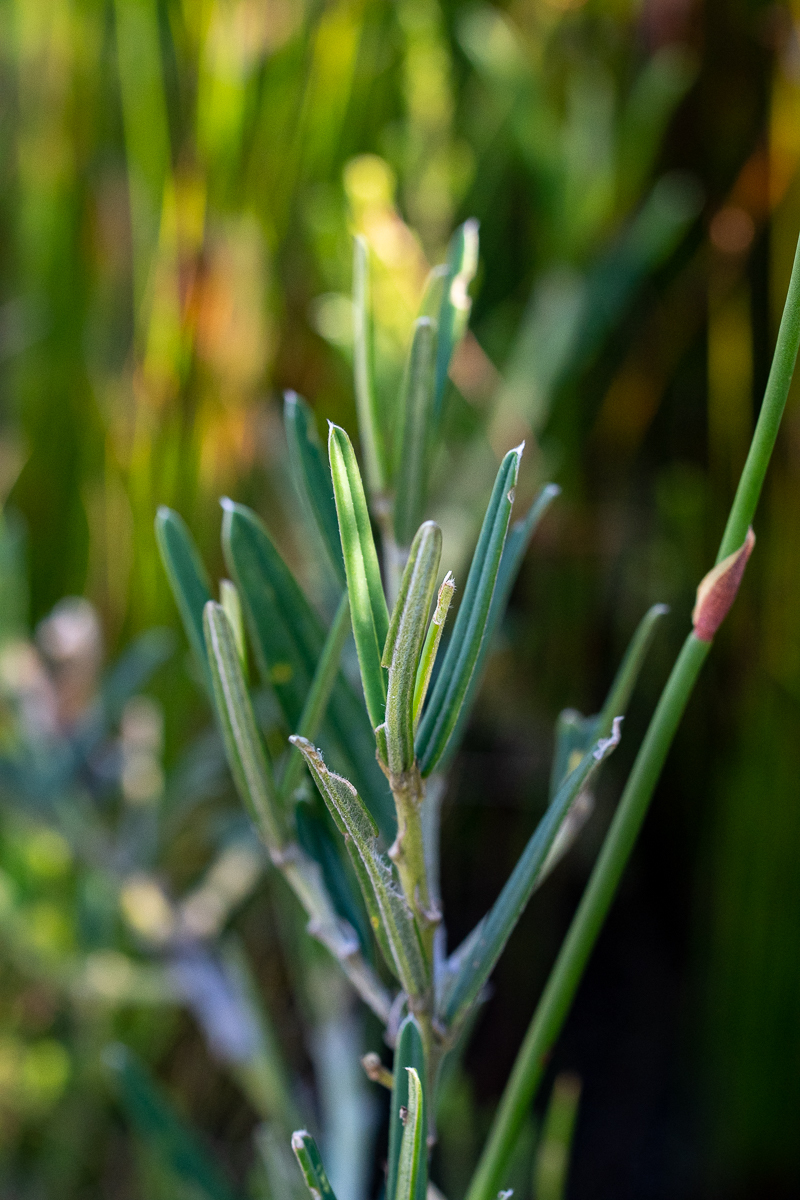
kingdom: Plantae
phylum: Tracheophyta
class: Magnoliopsida
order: Fabales
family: Fabaceae
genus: Podalyria
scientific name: Podalyria oleifolia
